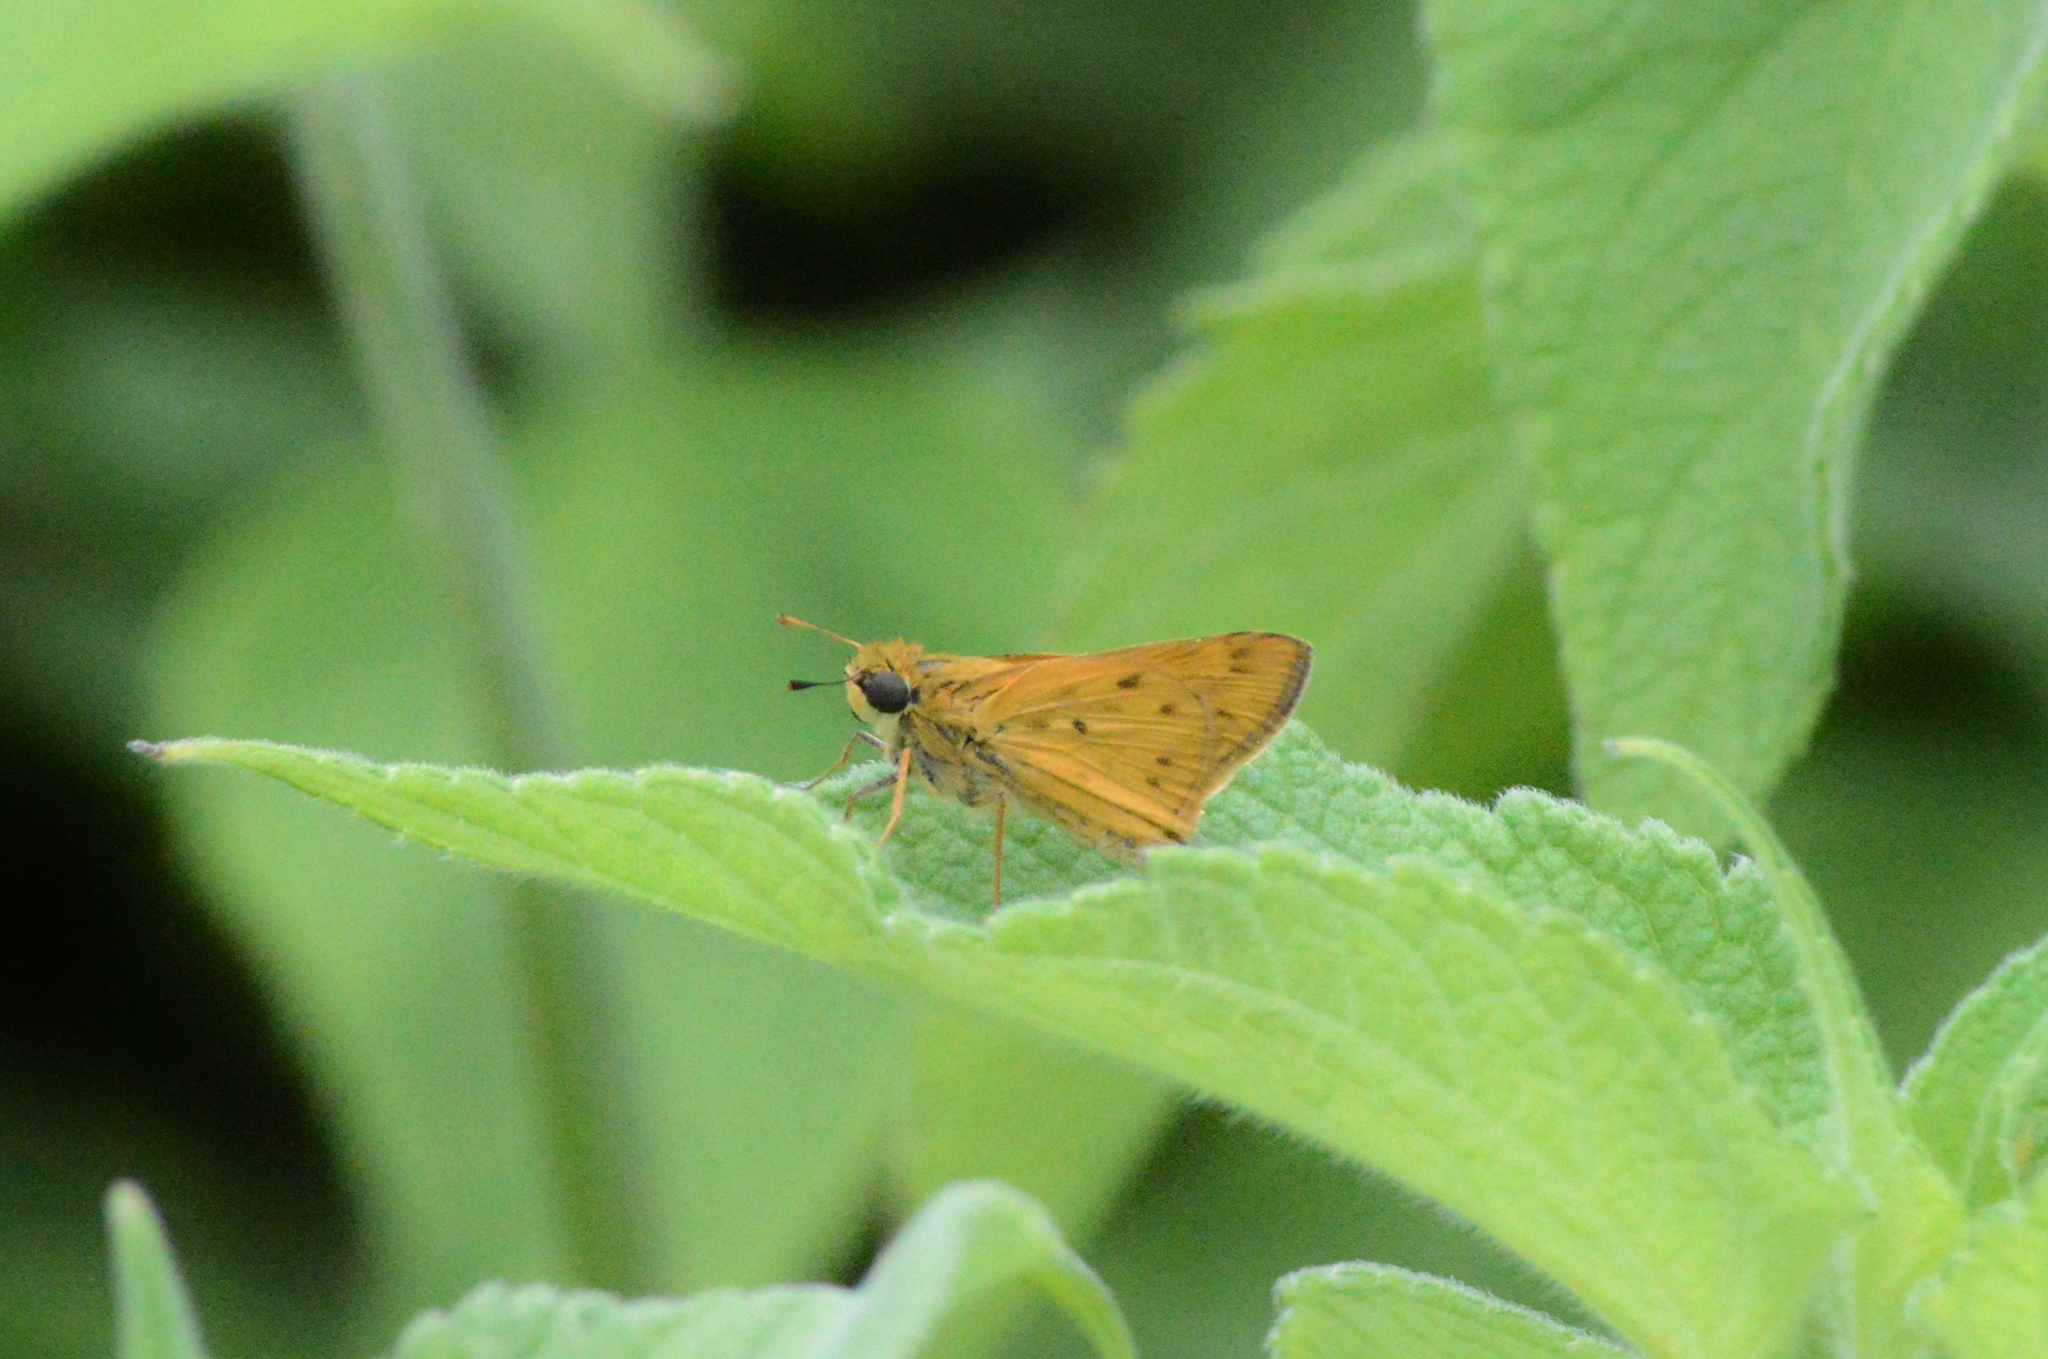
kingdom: Animalia
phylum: Arthropoda
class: Insecta
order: Lepidoptera
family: Hesperiidae
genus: Hylephila
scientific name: Hylephila phyleus
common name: Fiery skipper
